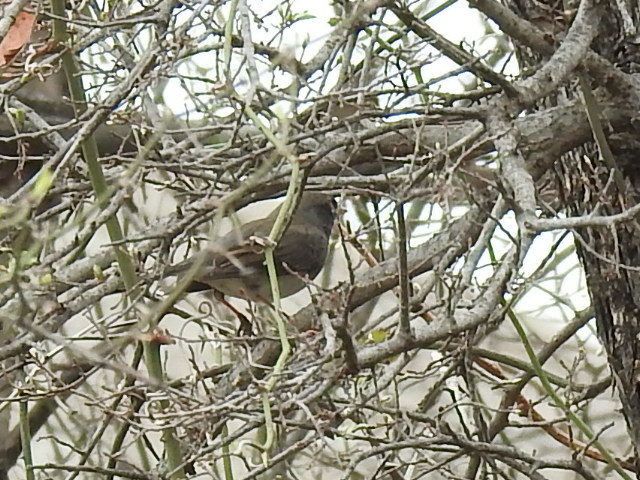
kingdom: Animalia
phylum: Chordata
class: Aves
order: Passeriformes
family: Passerellidae
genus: Junco
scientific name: Junco hyemalis
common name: Dark-eyed junco
